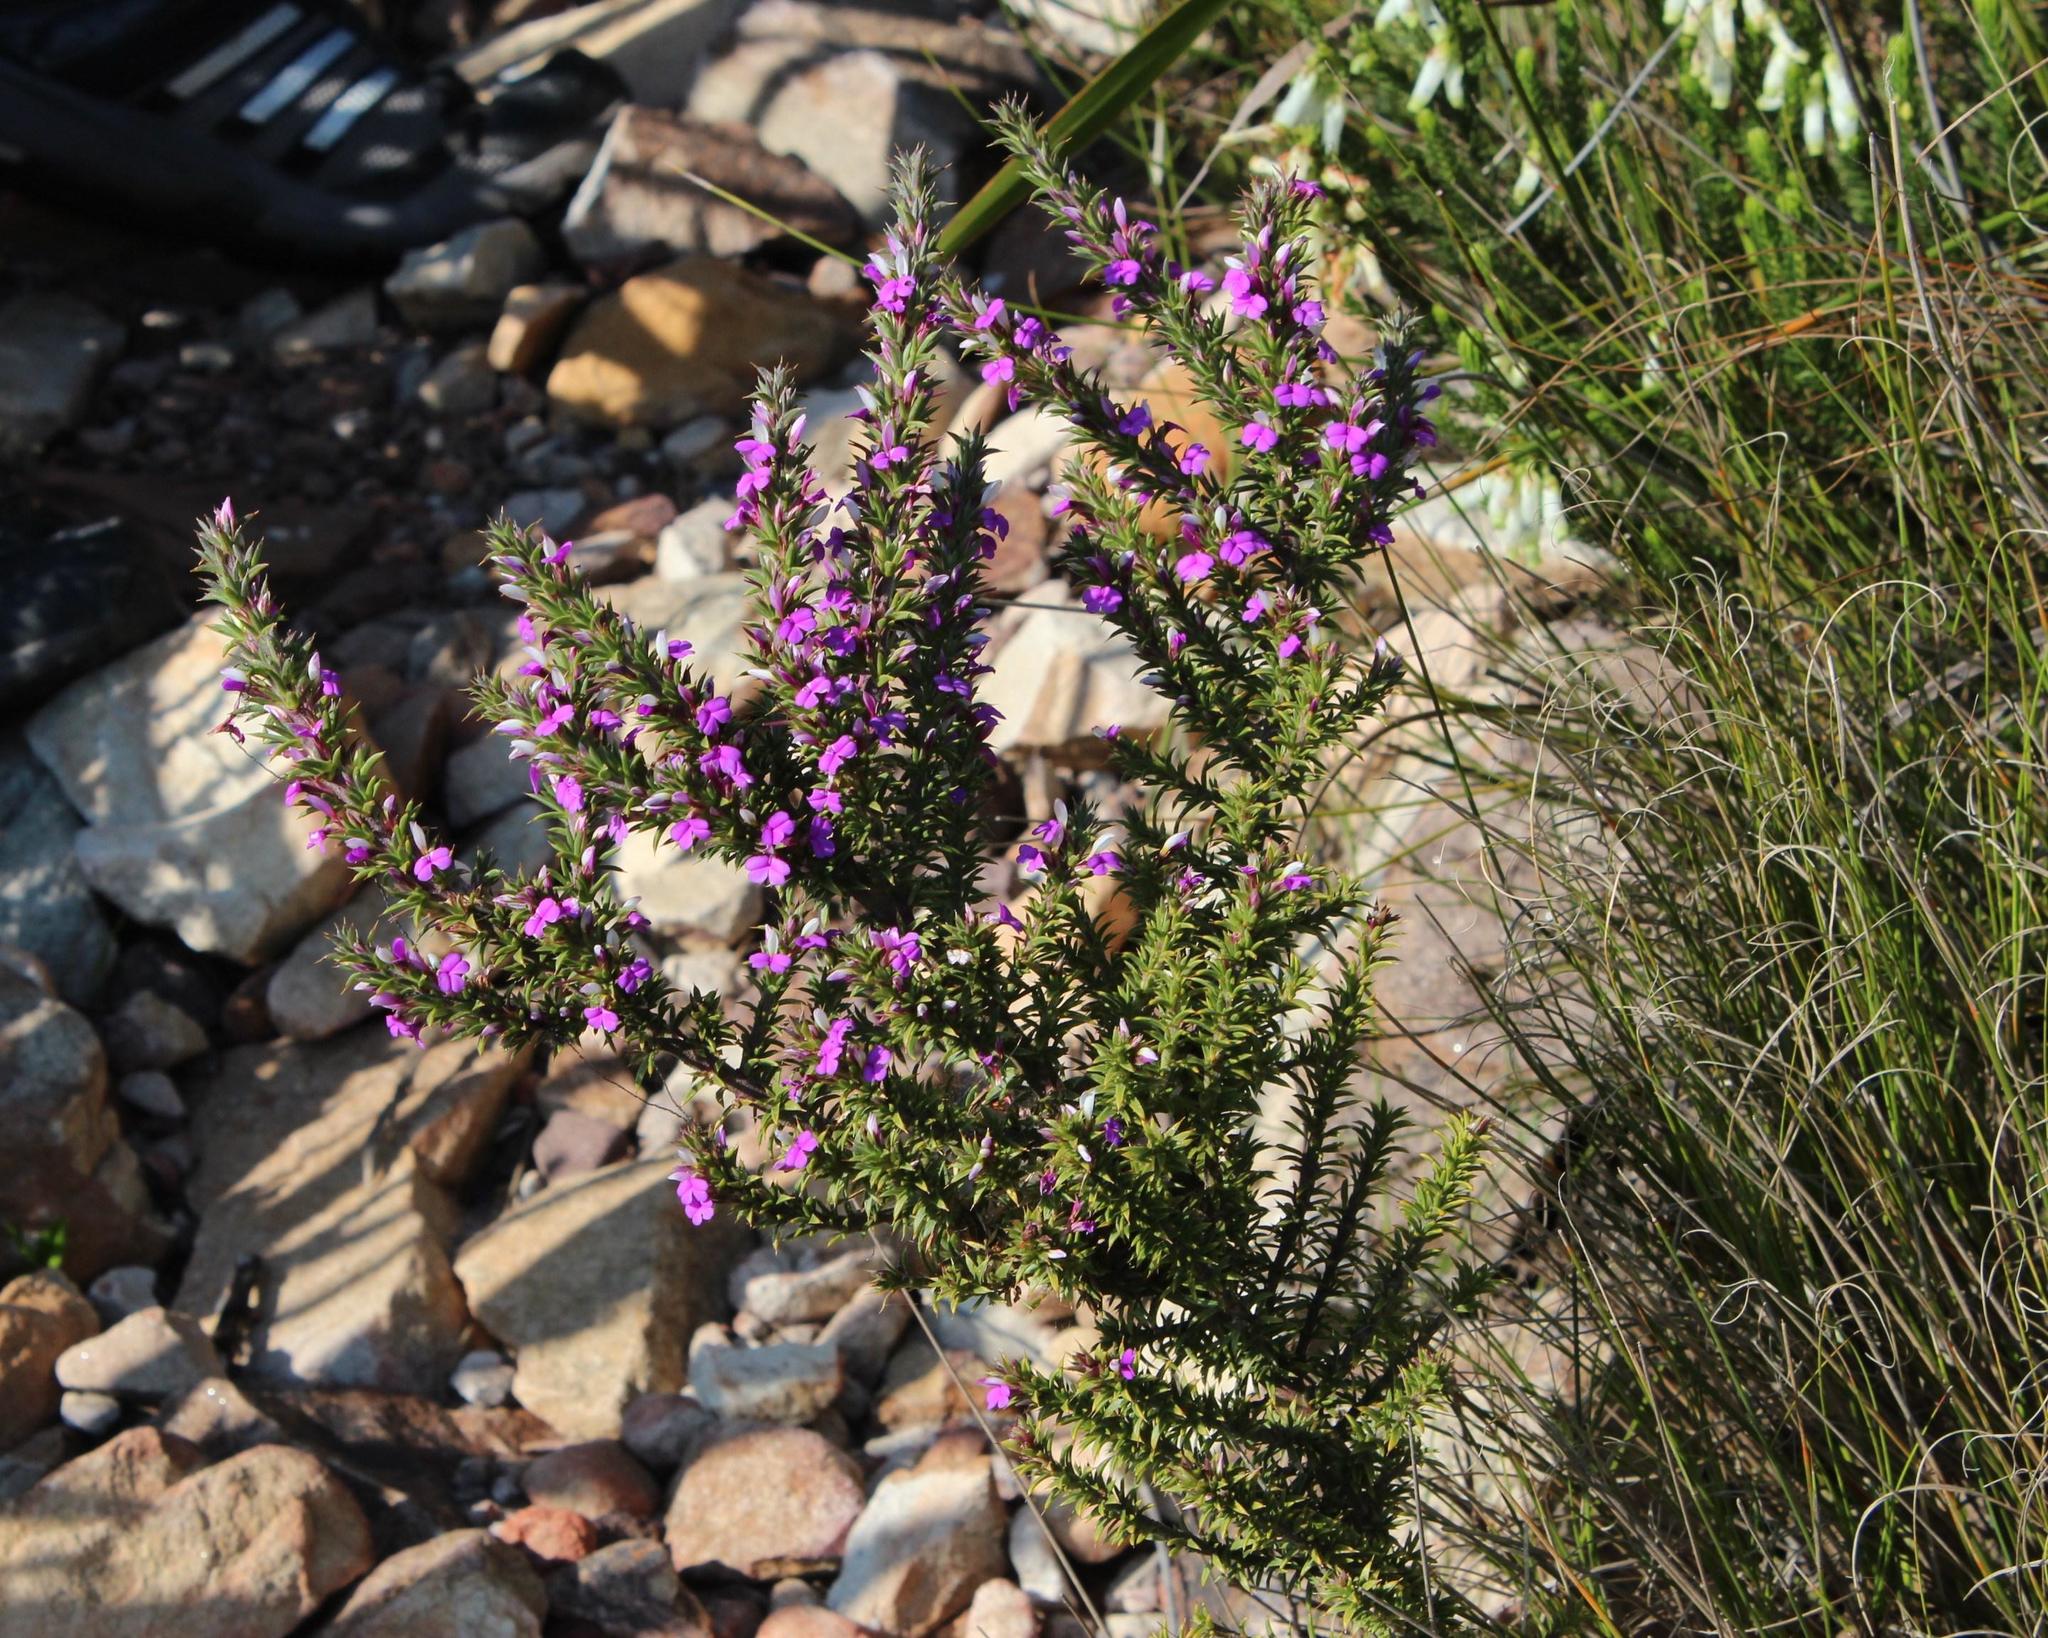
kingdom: Plantae
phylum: Tracheophyta
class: Magnoliopsida
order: Fabales
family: Polygalaceae
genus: Muraltia
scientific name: Muraltia heisteria
